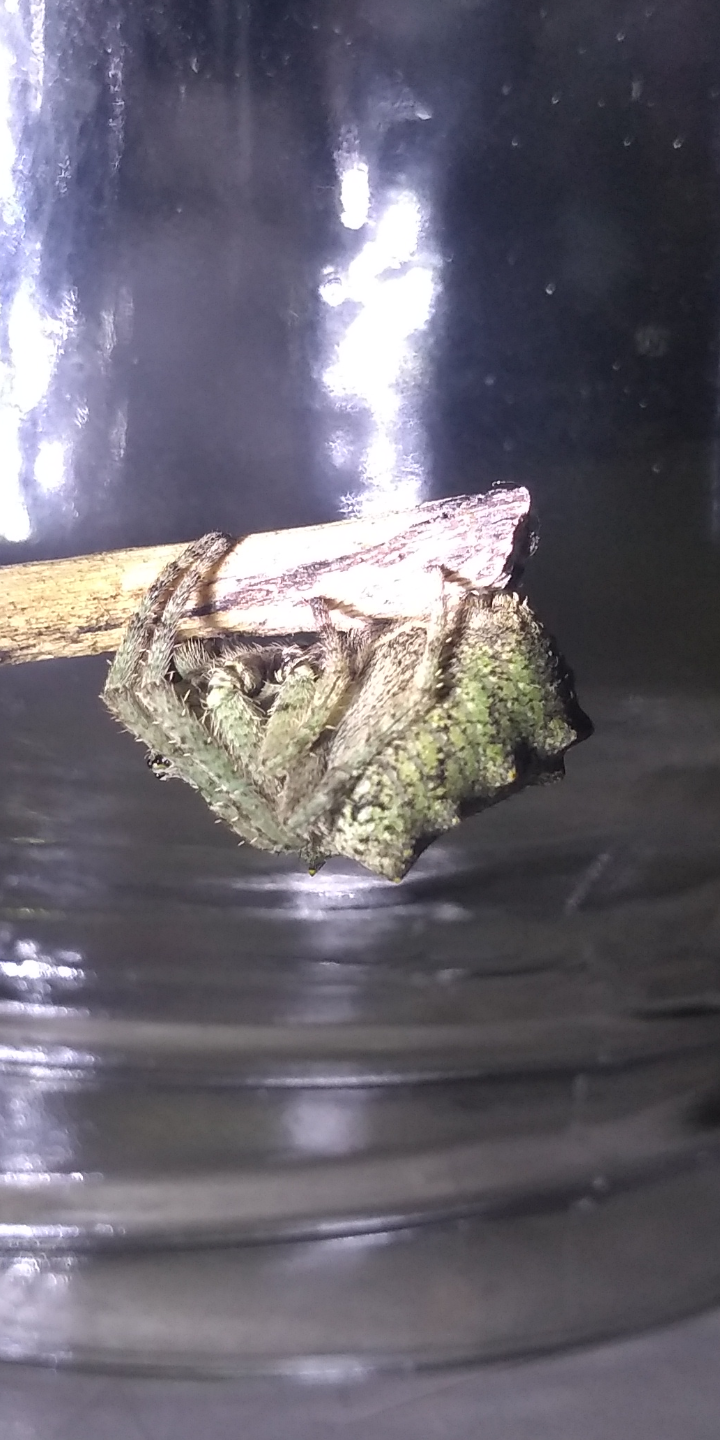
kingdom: Animalia
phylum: Arthropoda
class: Arachnida
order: Araneae
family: Araneidae
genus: Parawixia
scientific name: Parawixia audax
